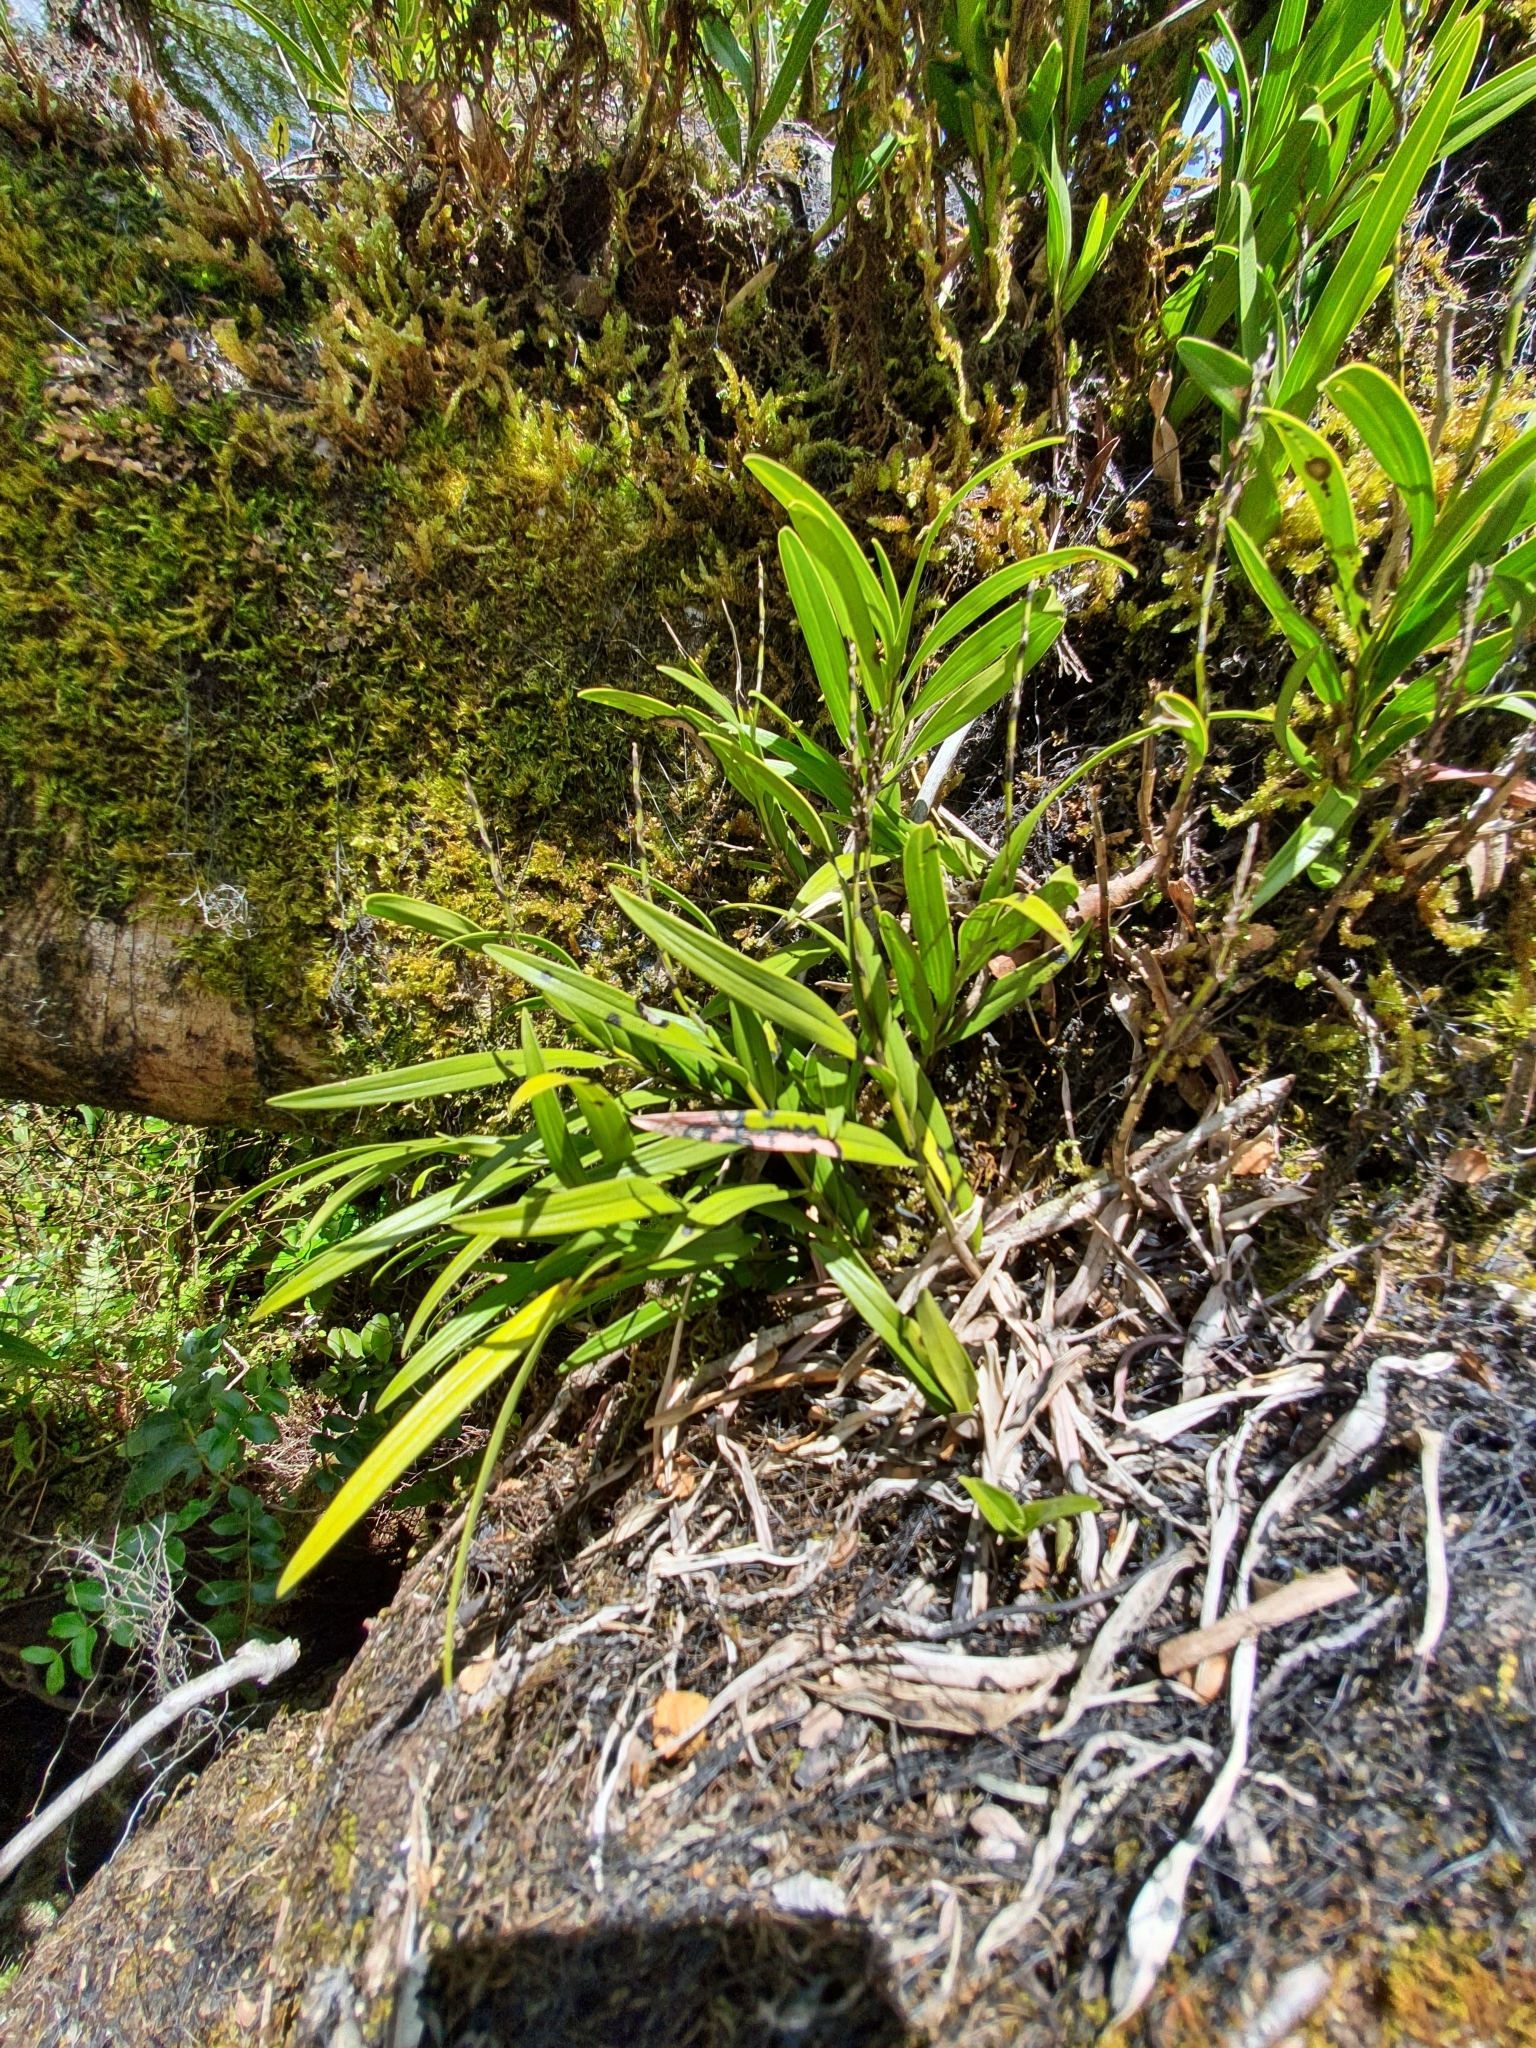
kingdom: Plantae
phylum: Tracheophyta
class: Liliopsida
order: Asparagales
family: Orchidaceae
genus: Earina
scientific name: Earina autumnalis
